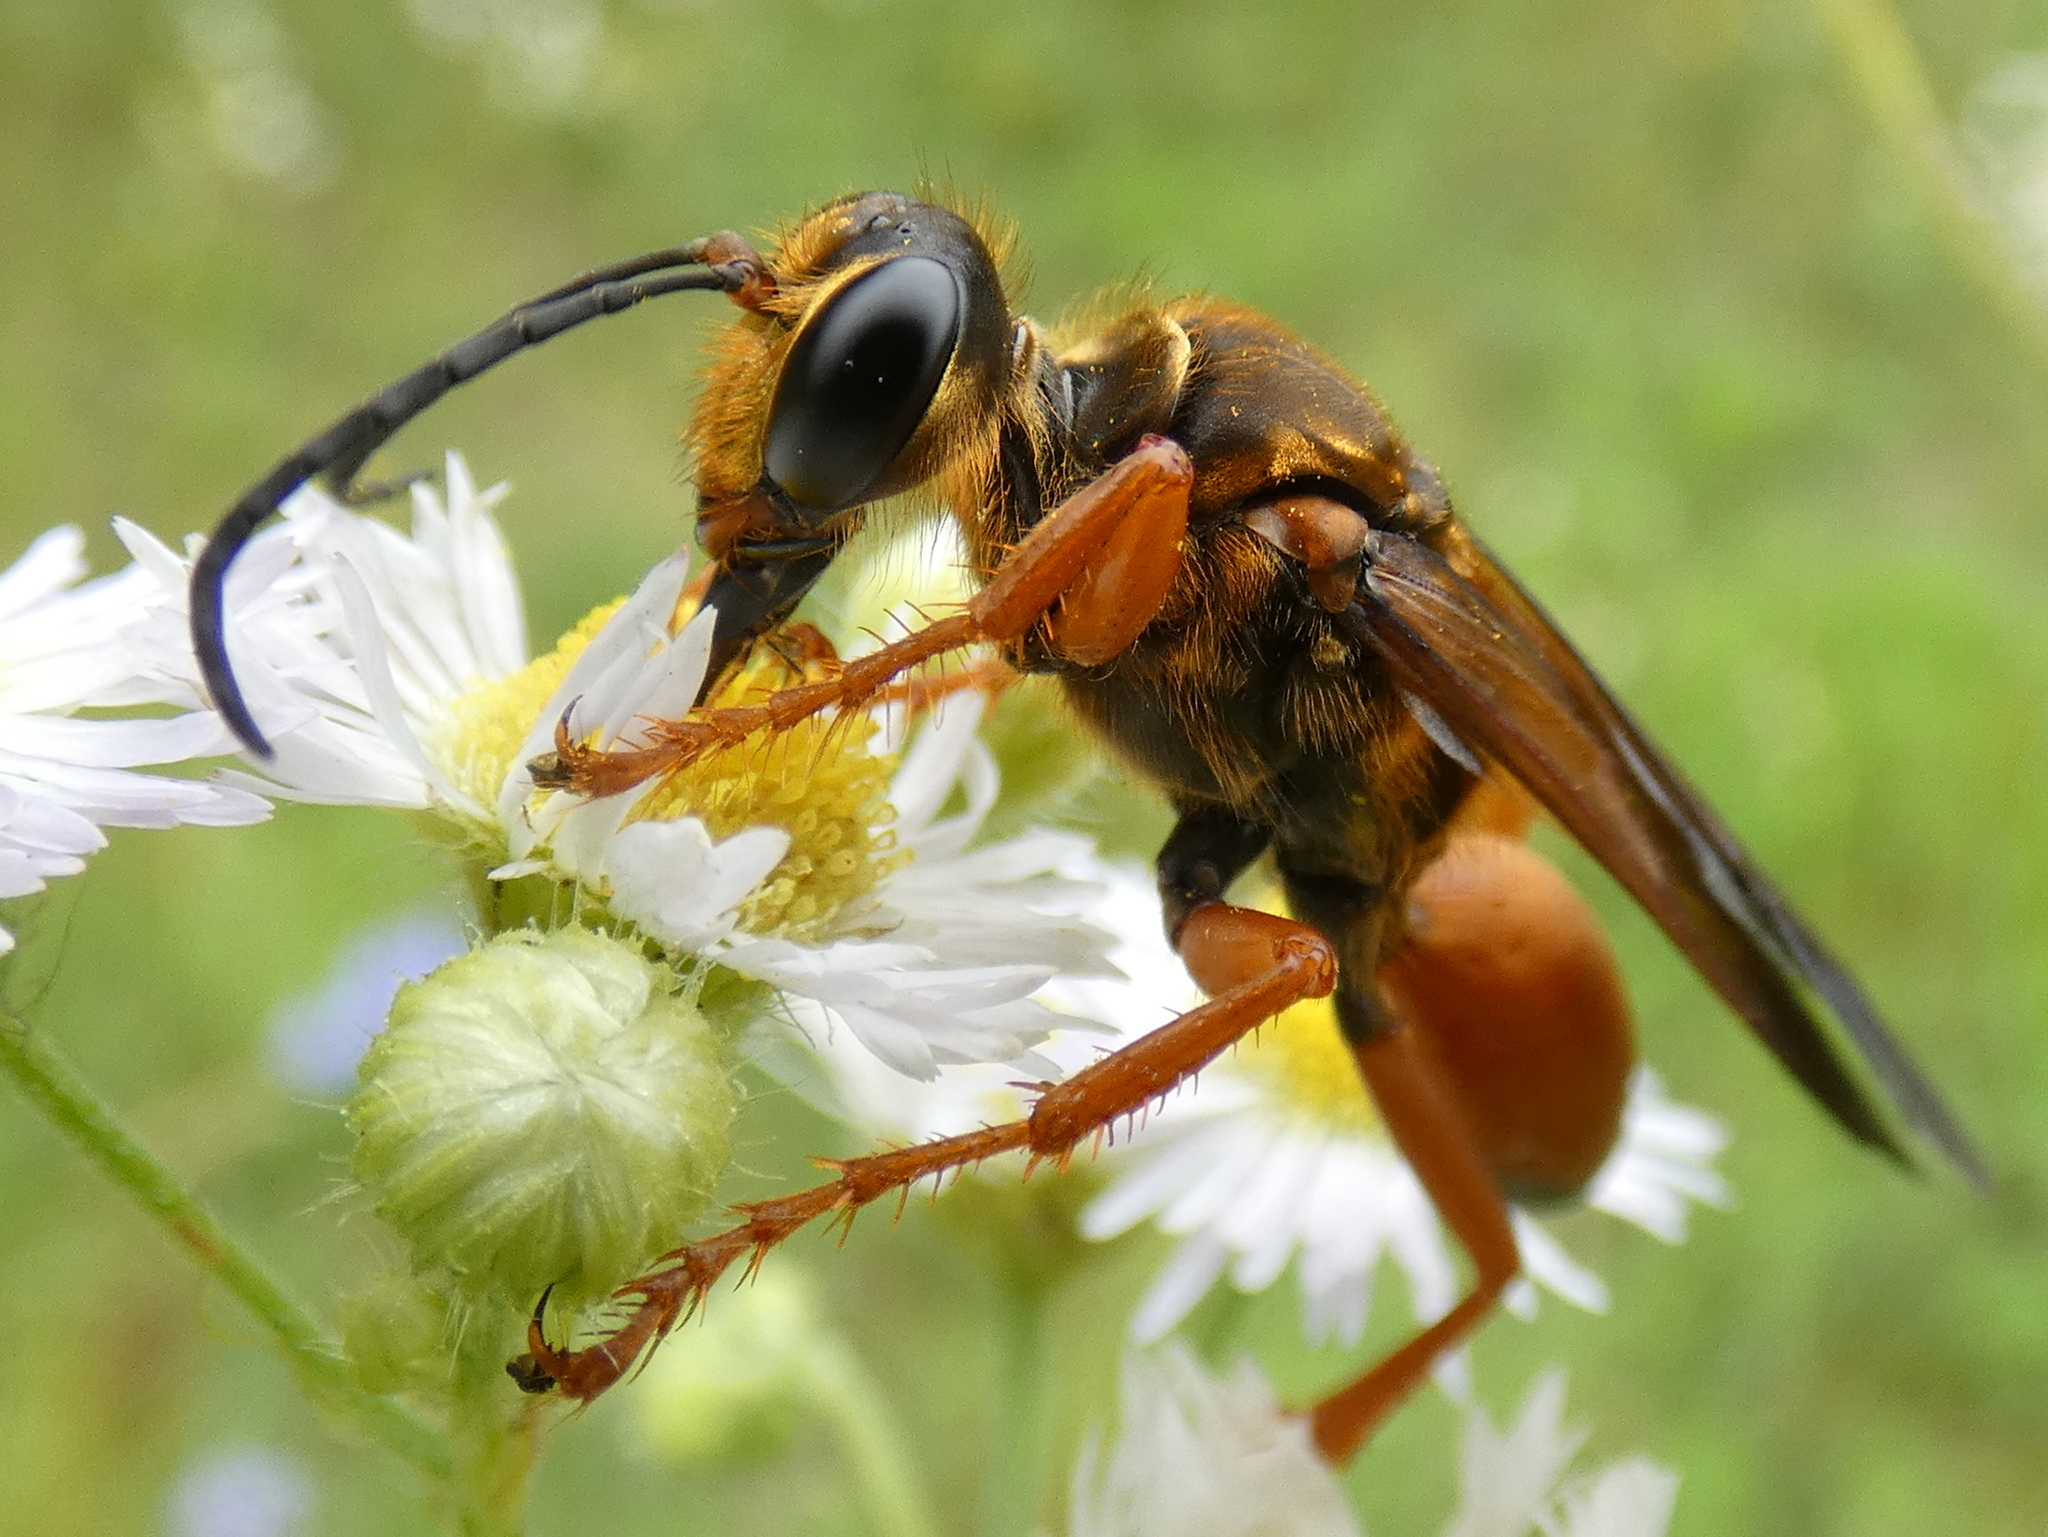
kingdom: Animalia
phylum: Arthropoda
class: Insecta
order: Hymenoptera
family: Sphecidae
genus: Sphex
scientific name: Sphex ichneumoneus
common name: Great golden digger wasp
